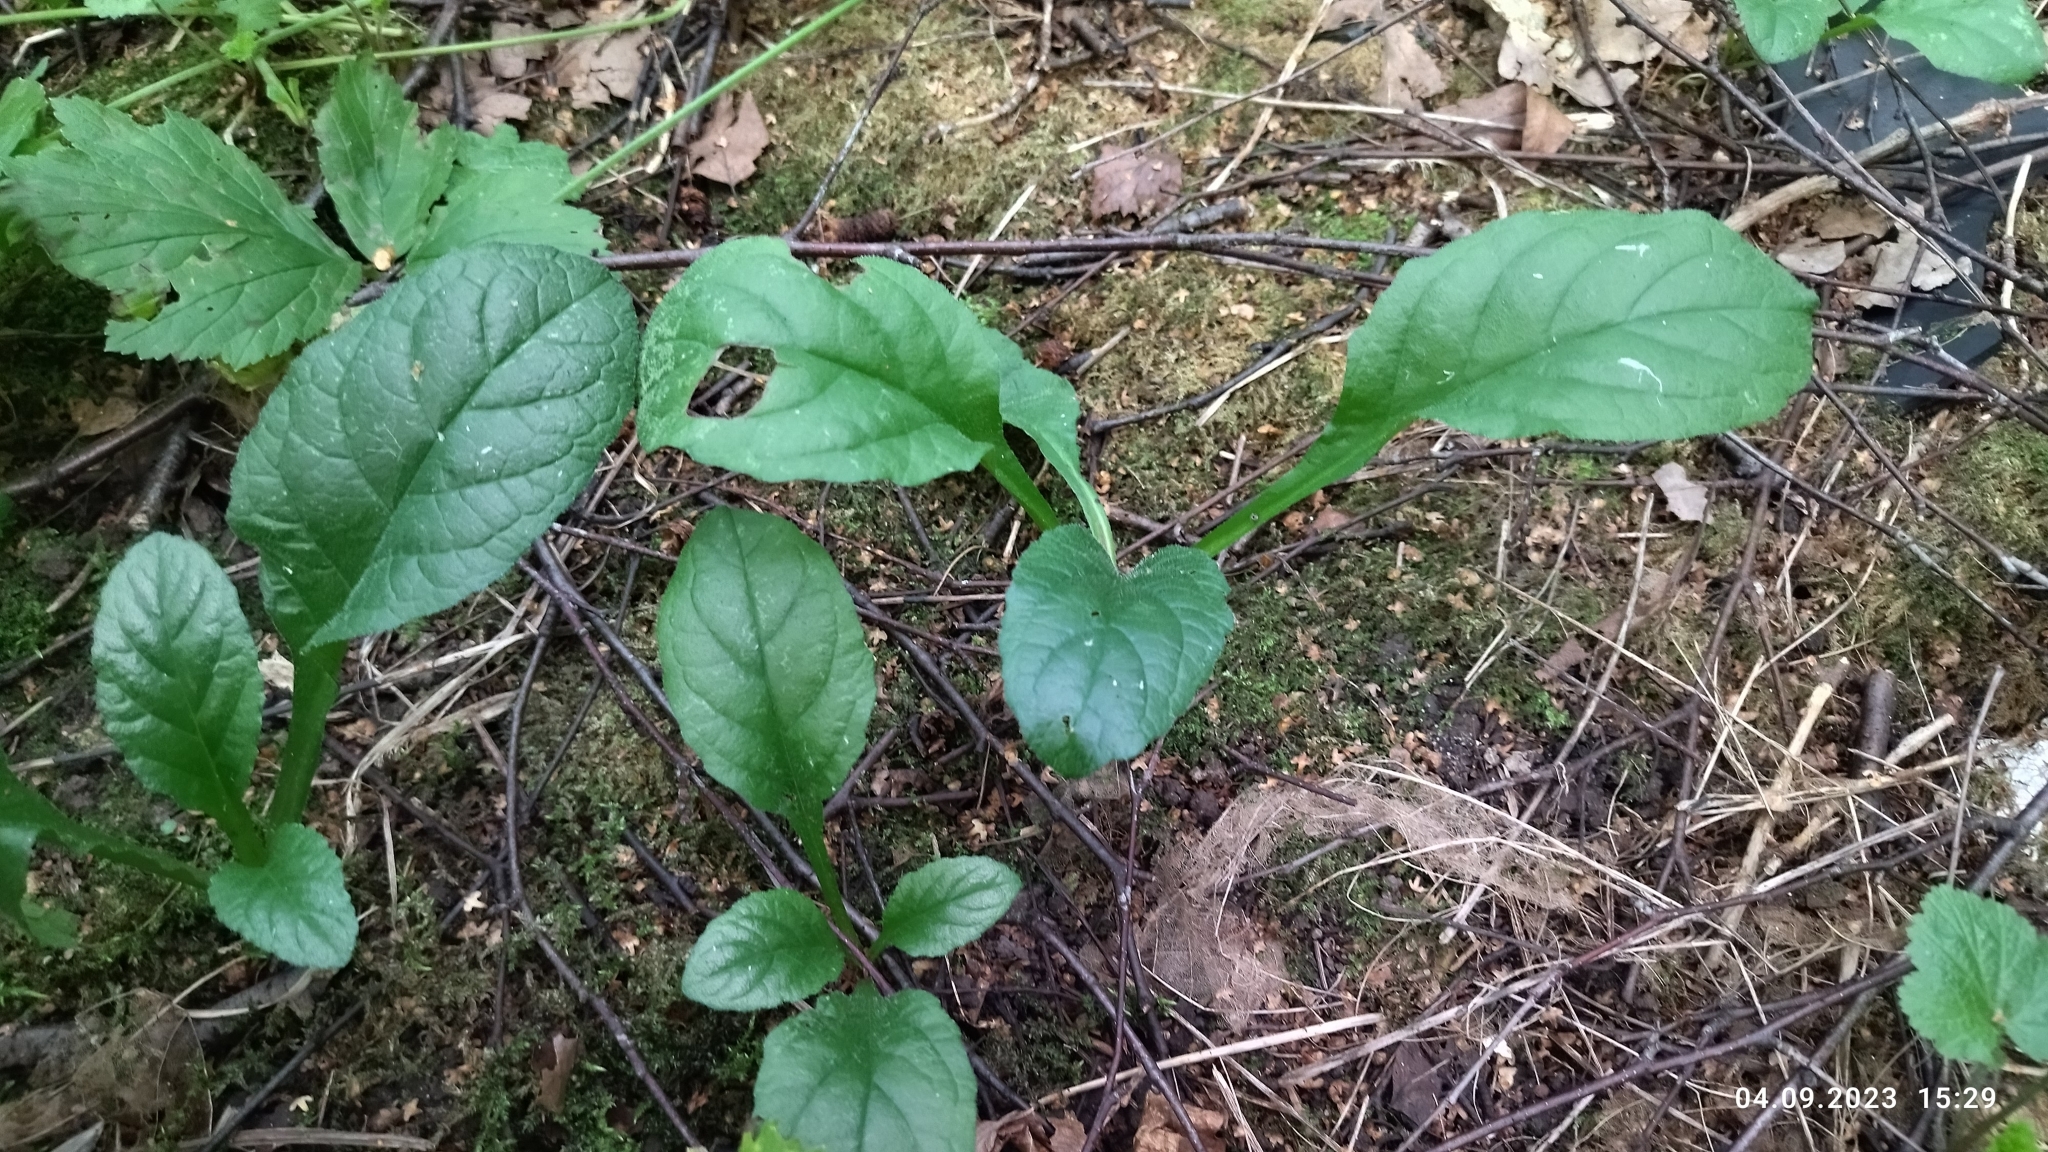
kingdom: Plantae
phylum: Tracheophyta
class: Magnoliopsida
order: Lamiales
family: Lamiaceae
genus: Ajuga
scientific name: Ajuga reptans
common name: Bugle
